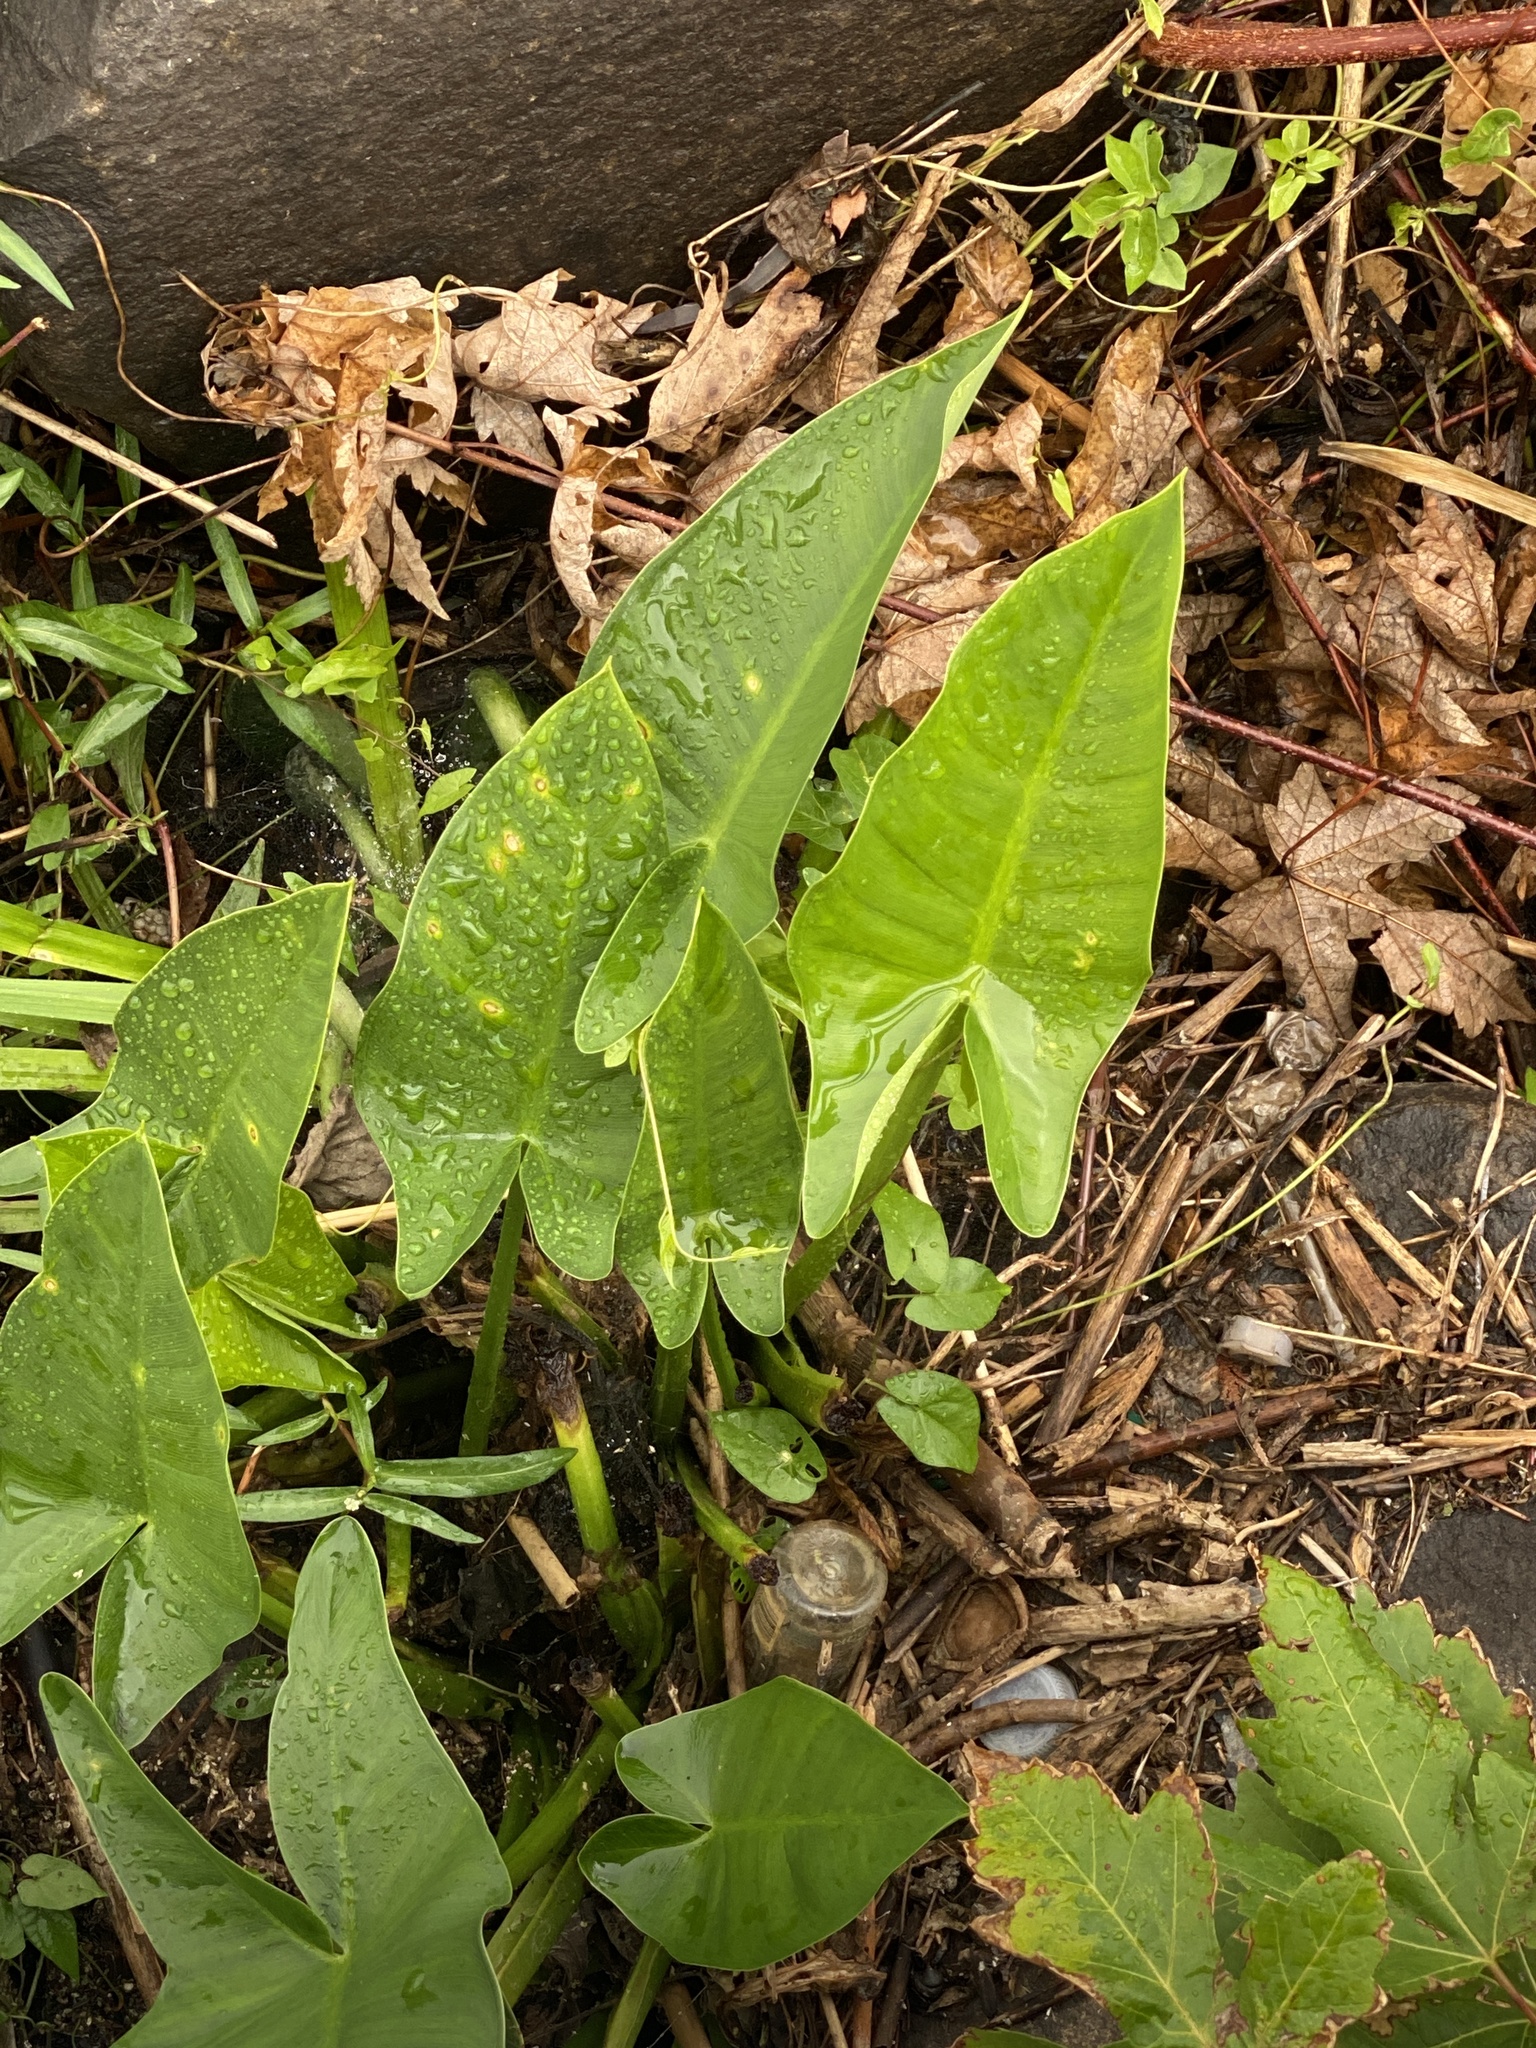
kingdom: Plantae
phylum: Tracheophyta
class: Liliopsida
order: Alismatales
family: Araceae
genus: Peltandra
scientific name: Peltandra virginica
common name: Arrow arum
